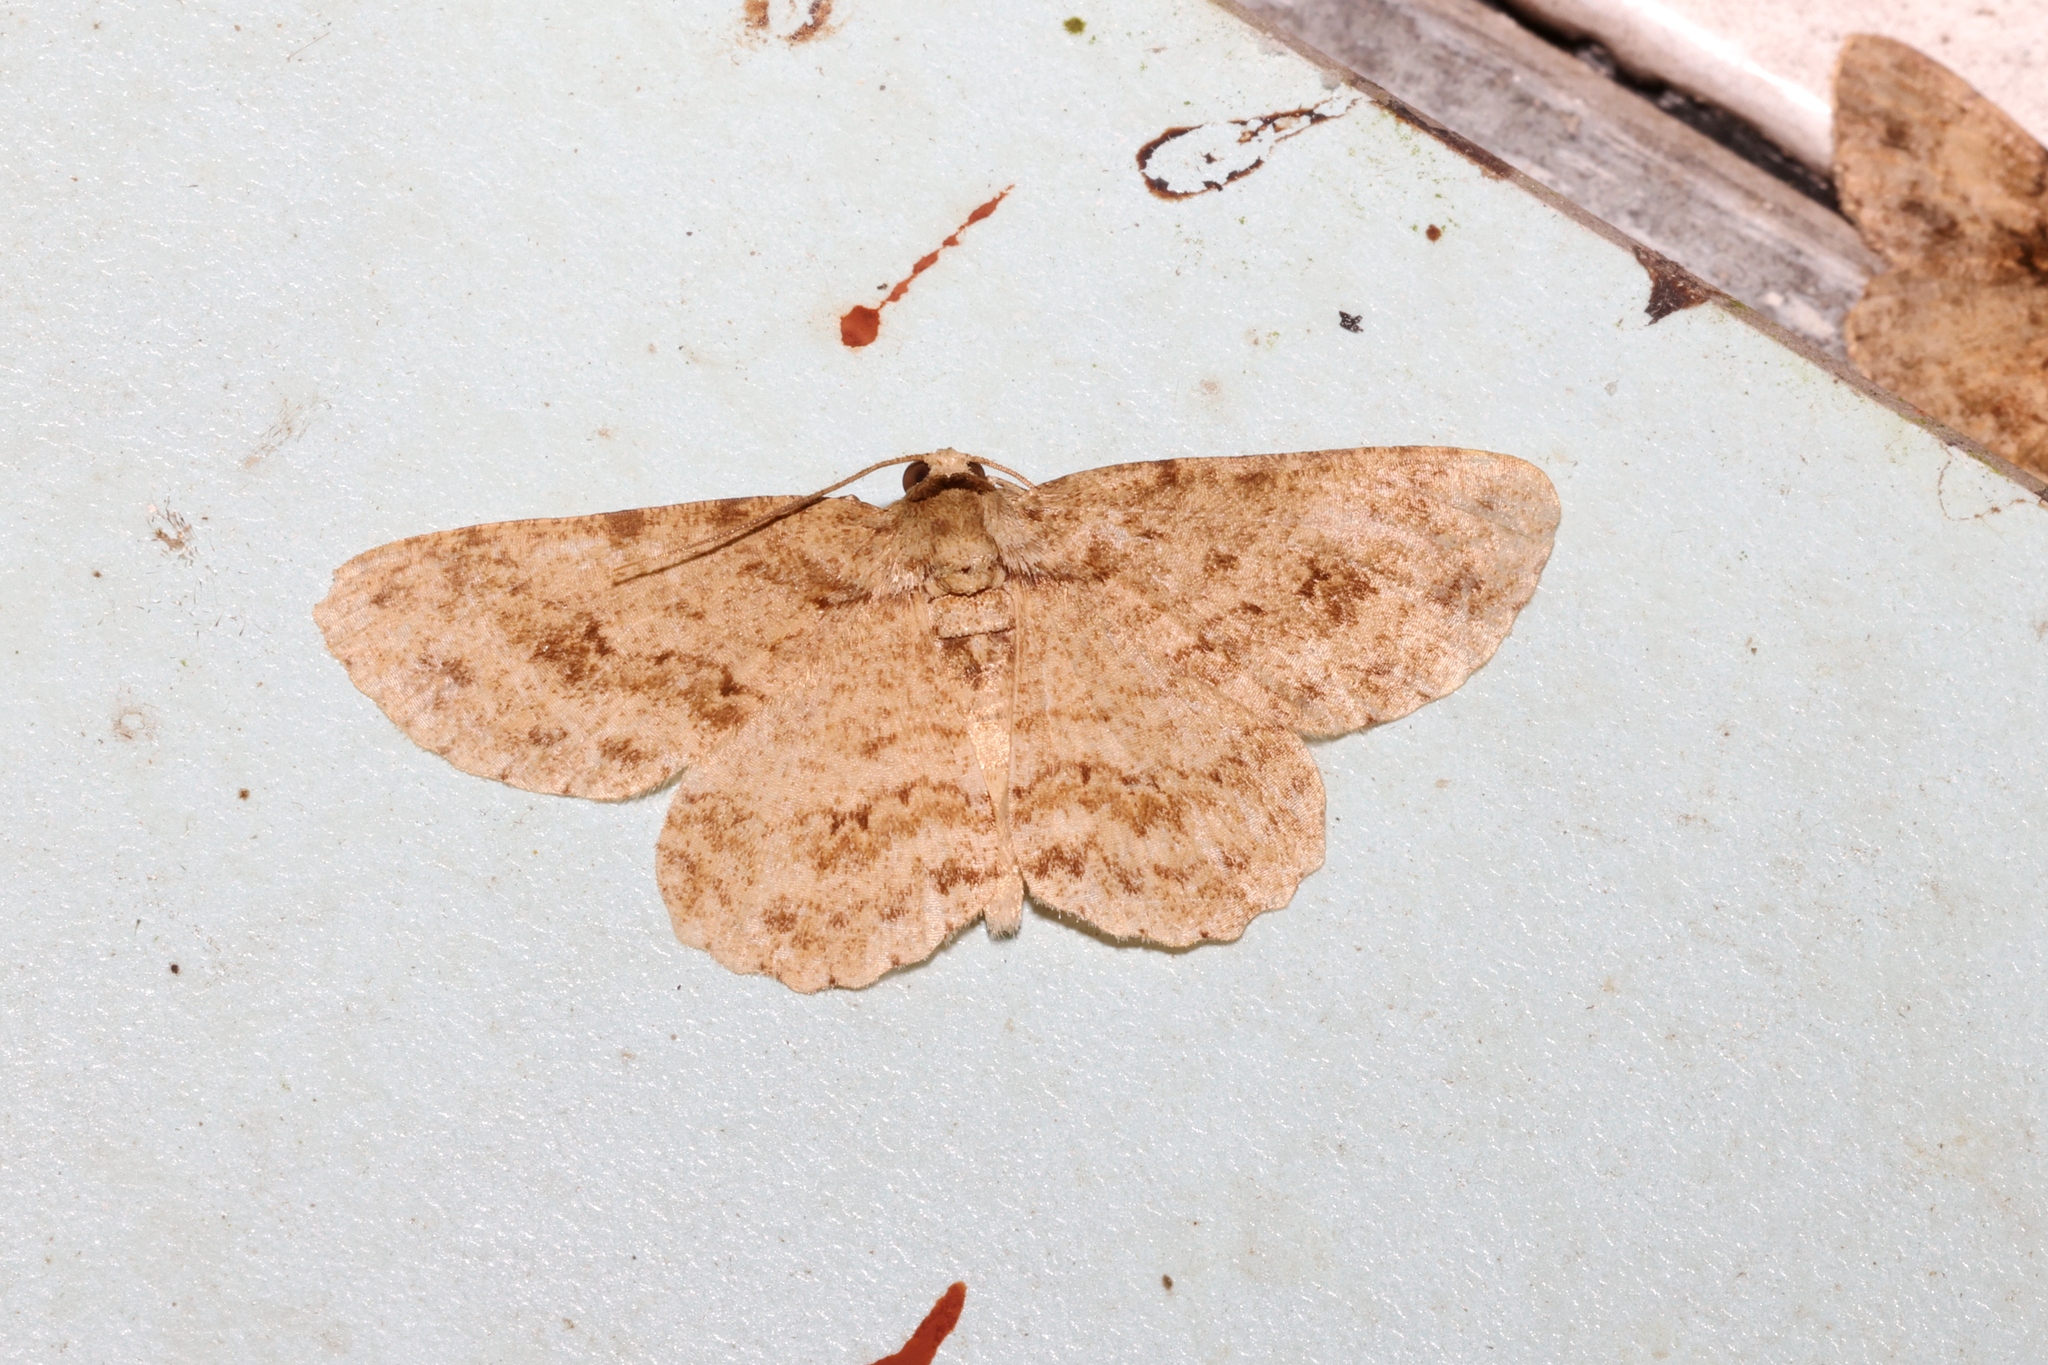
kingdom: Animalia
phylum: Arthropoda
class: Insecta
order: Lepidoptera
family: Geometridae
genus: Ectropis
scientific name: Ectropis bhurmitra
